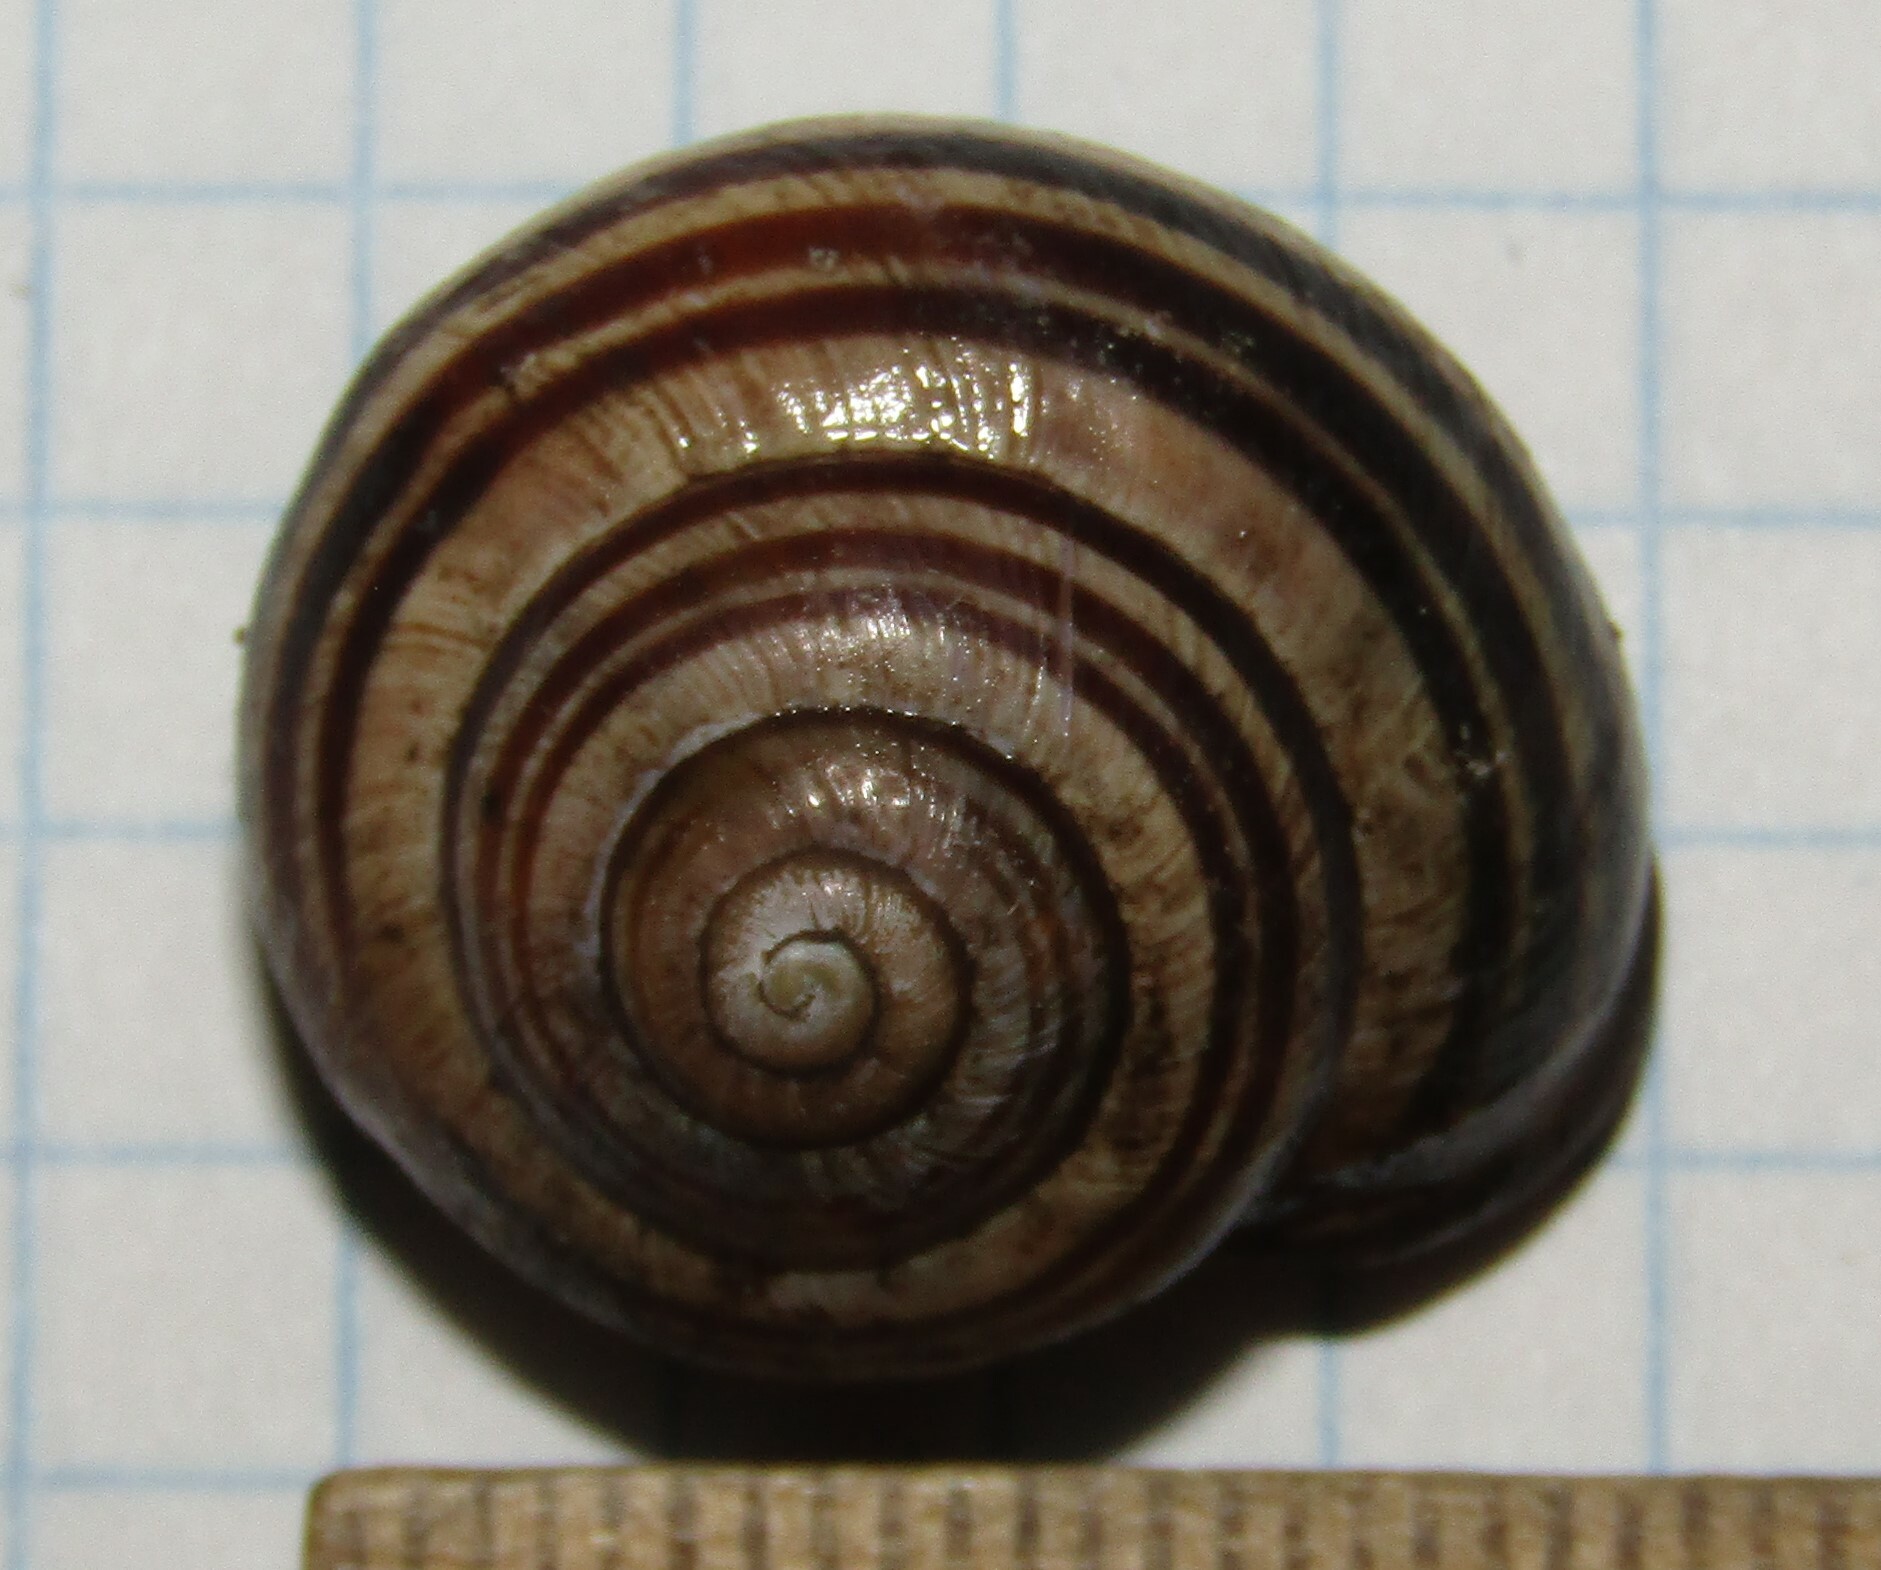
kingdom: Animalia
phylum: Mollusca
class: Gastropoda
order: Stylommatophora
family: Helicidae
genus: Cepaea
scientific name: Cepaea nemoralis
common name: Grovesnail
